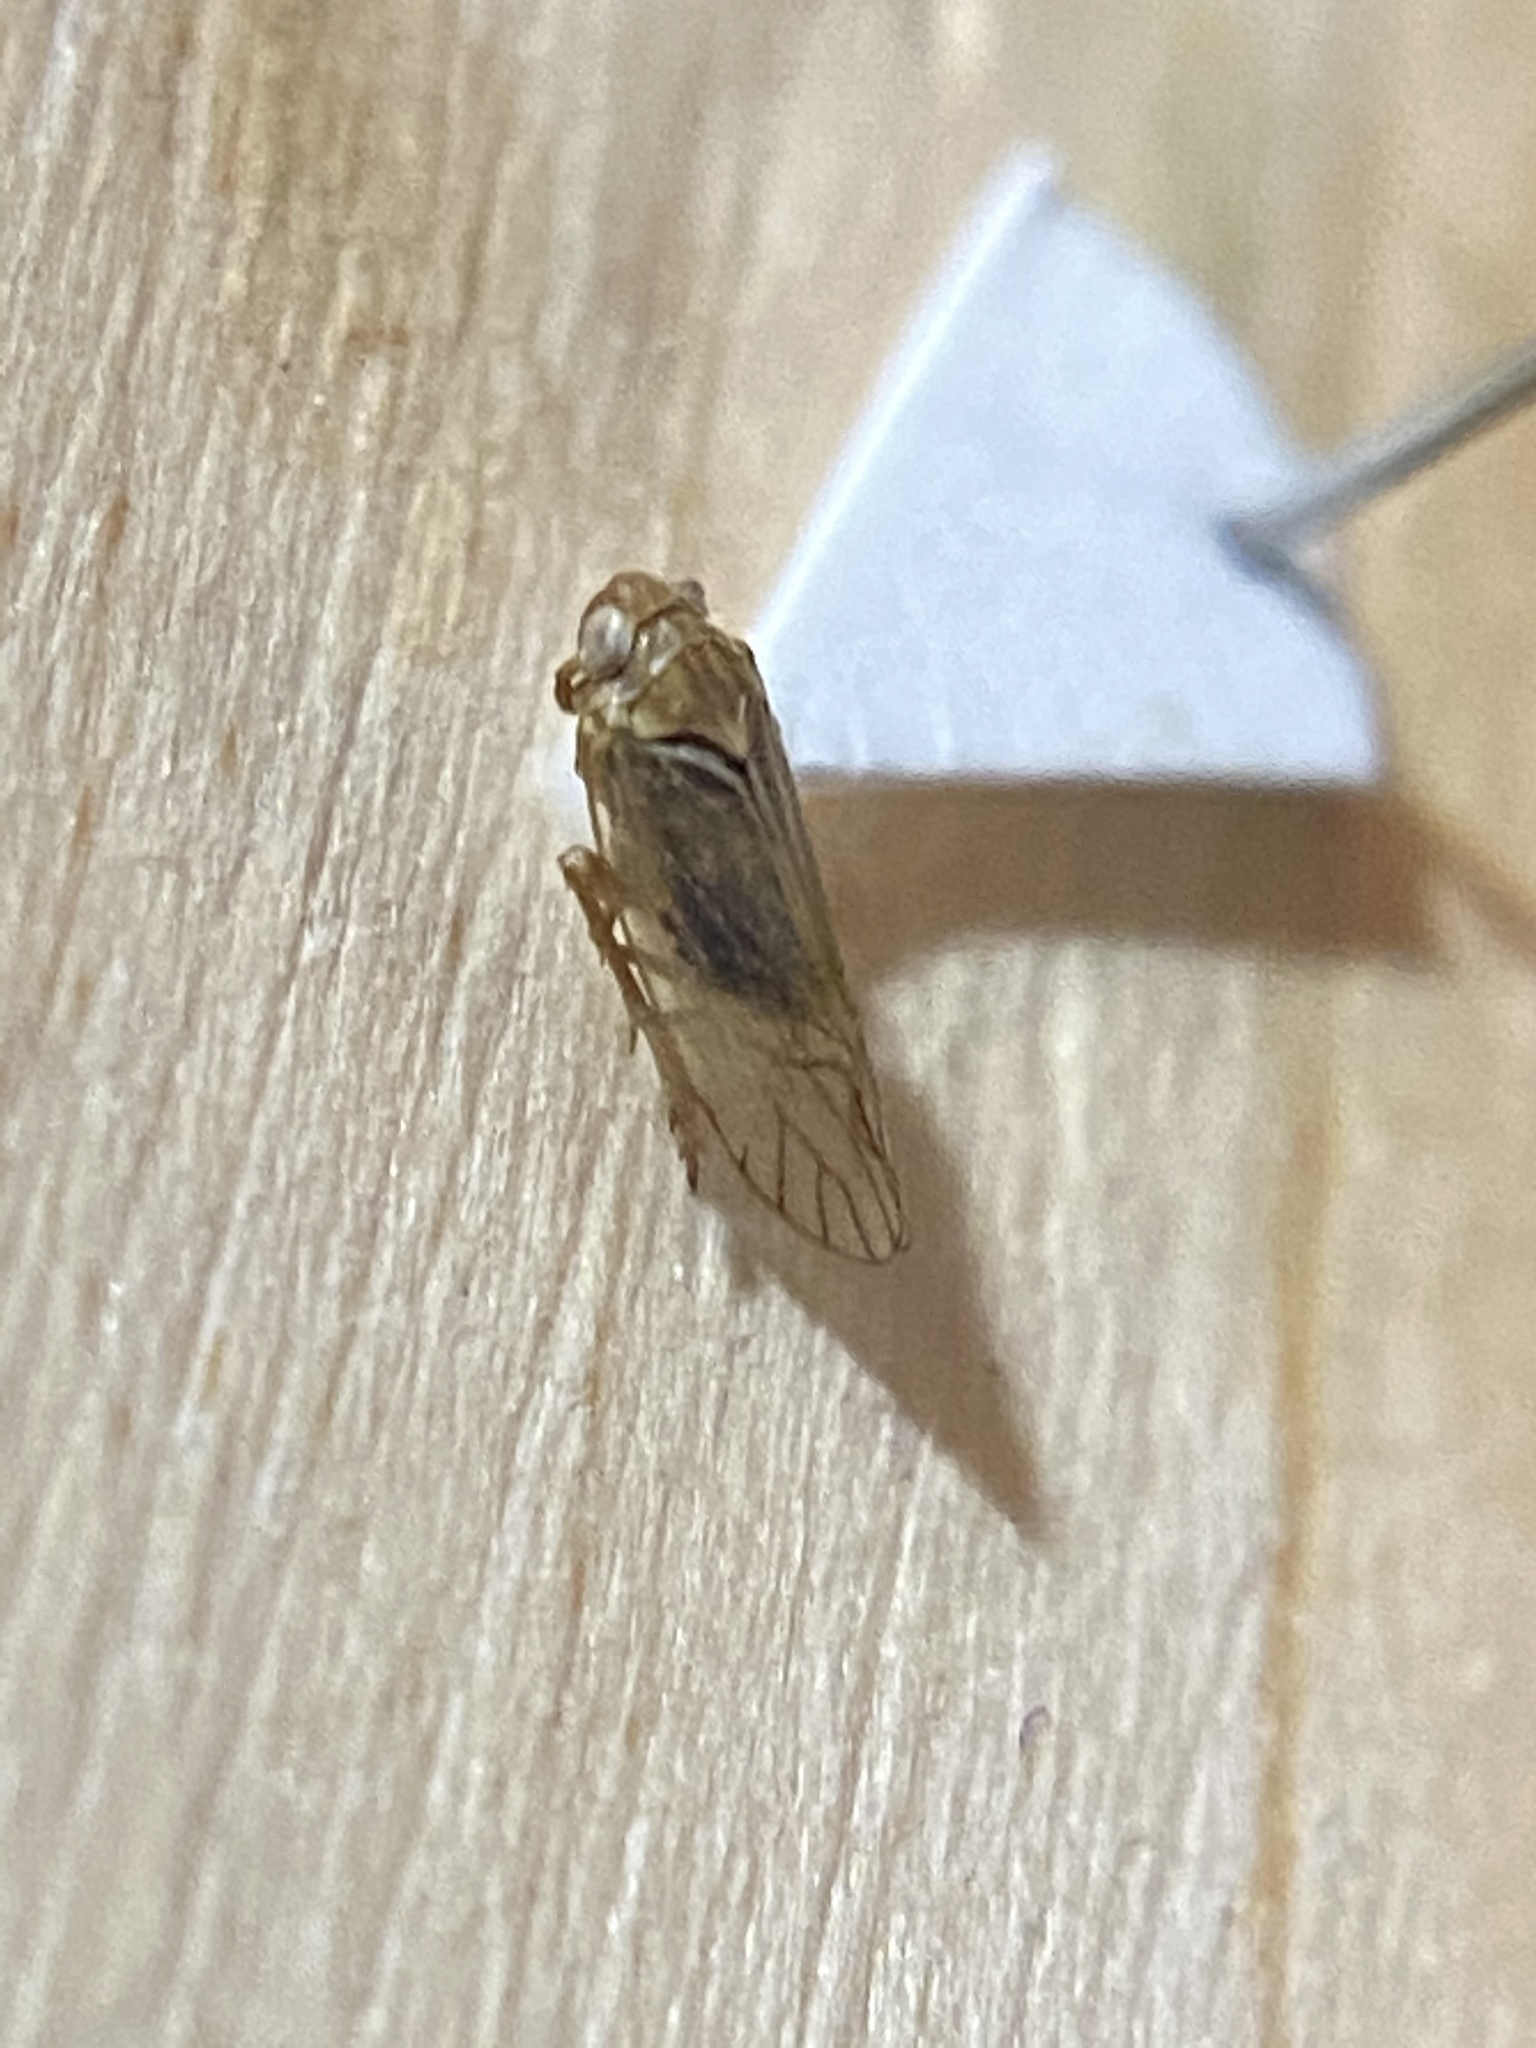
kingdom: Animalia
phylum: Arthropoda
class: Insecta
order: Hemiptera
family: Cicadellidae
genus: Exitianus
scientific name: Exitianus exitiosus
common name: Gray lawn leafhopper
